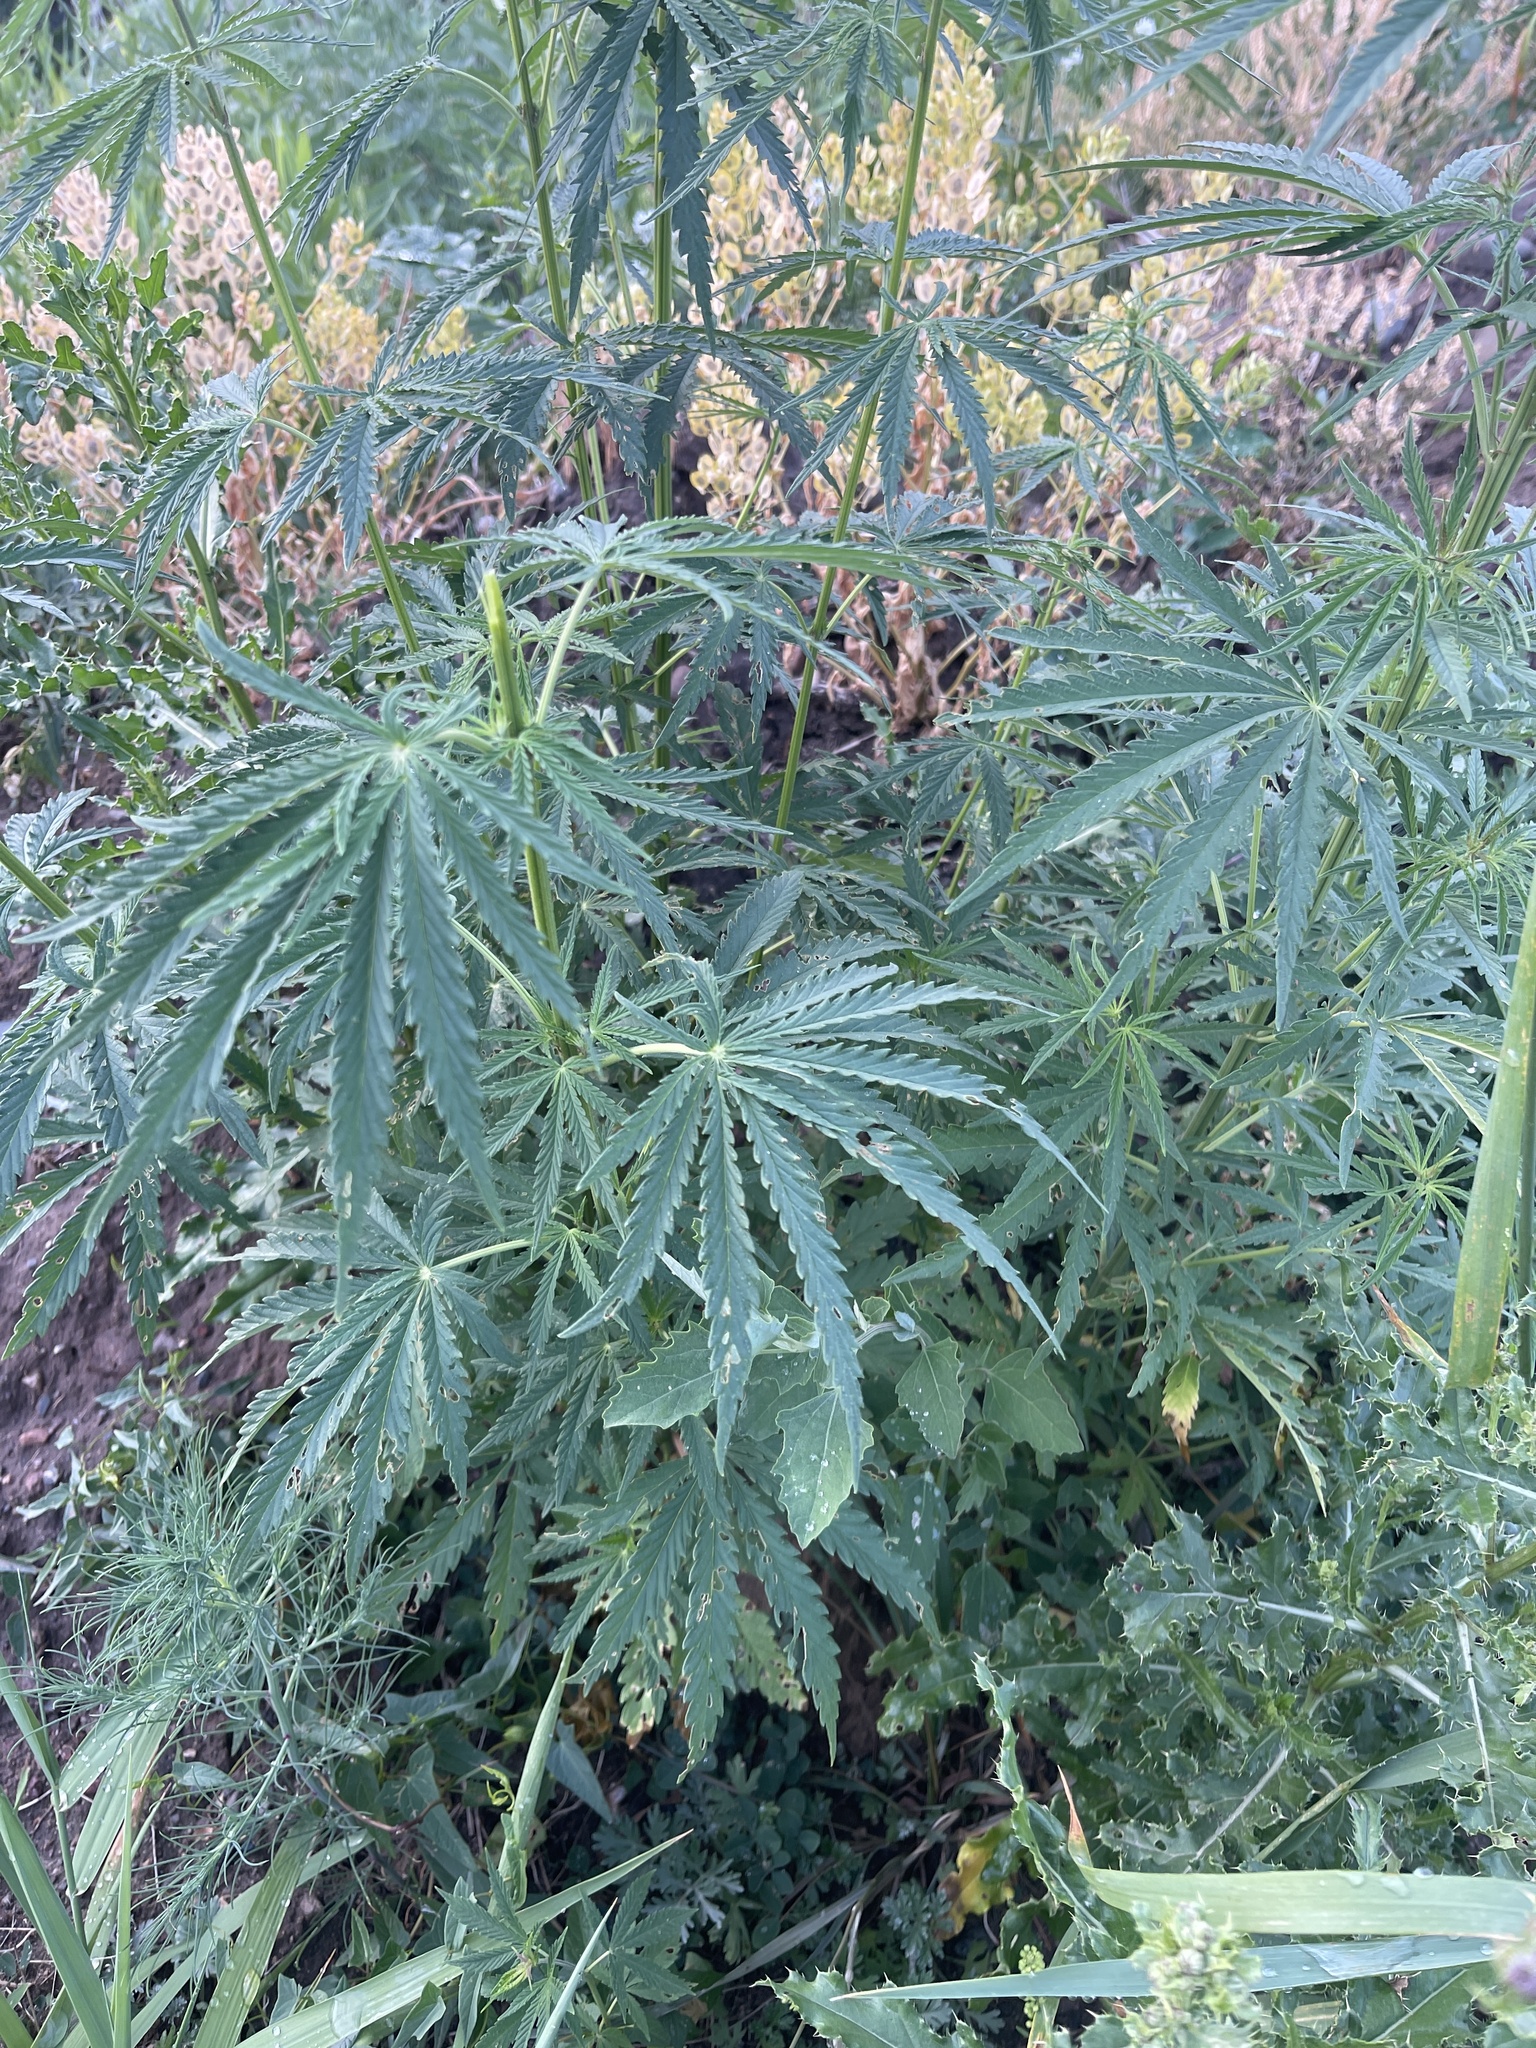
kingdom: Plantae
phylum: Tracheophyta
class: Magnoliopsida
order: Rosales
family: Cannabaceae
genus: Cannabis
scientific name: Cannabis sativa
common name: Hemp
